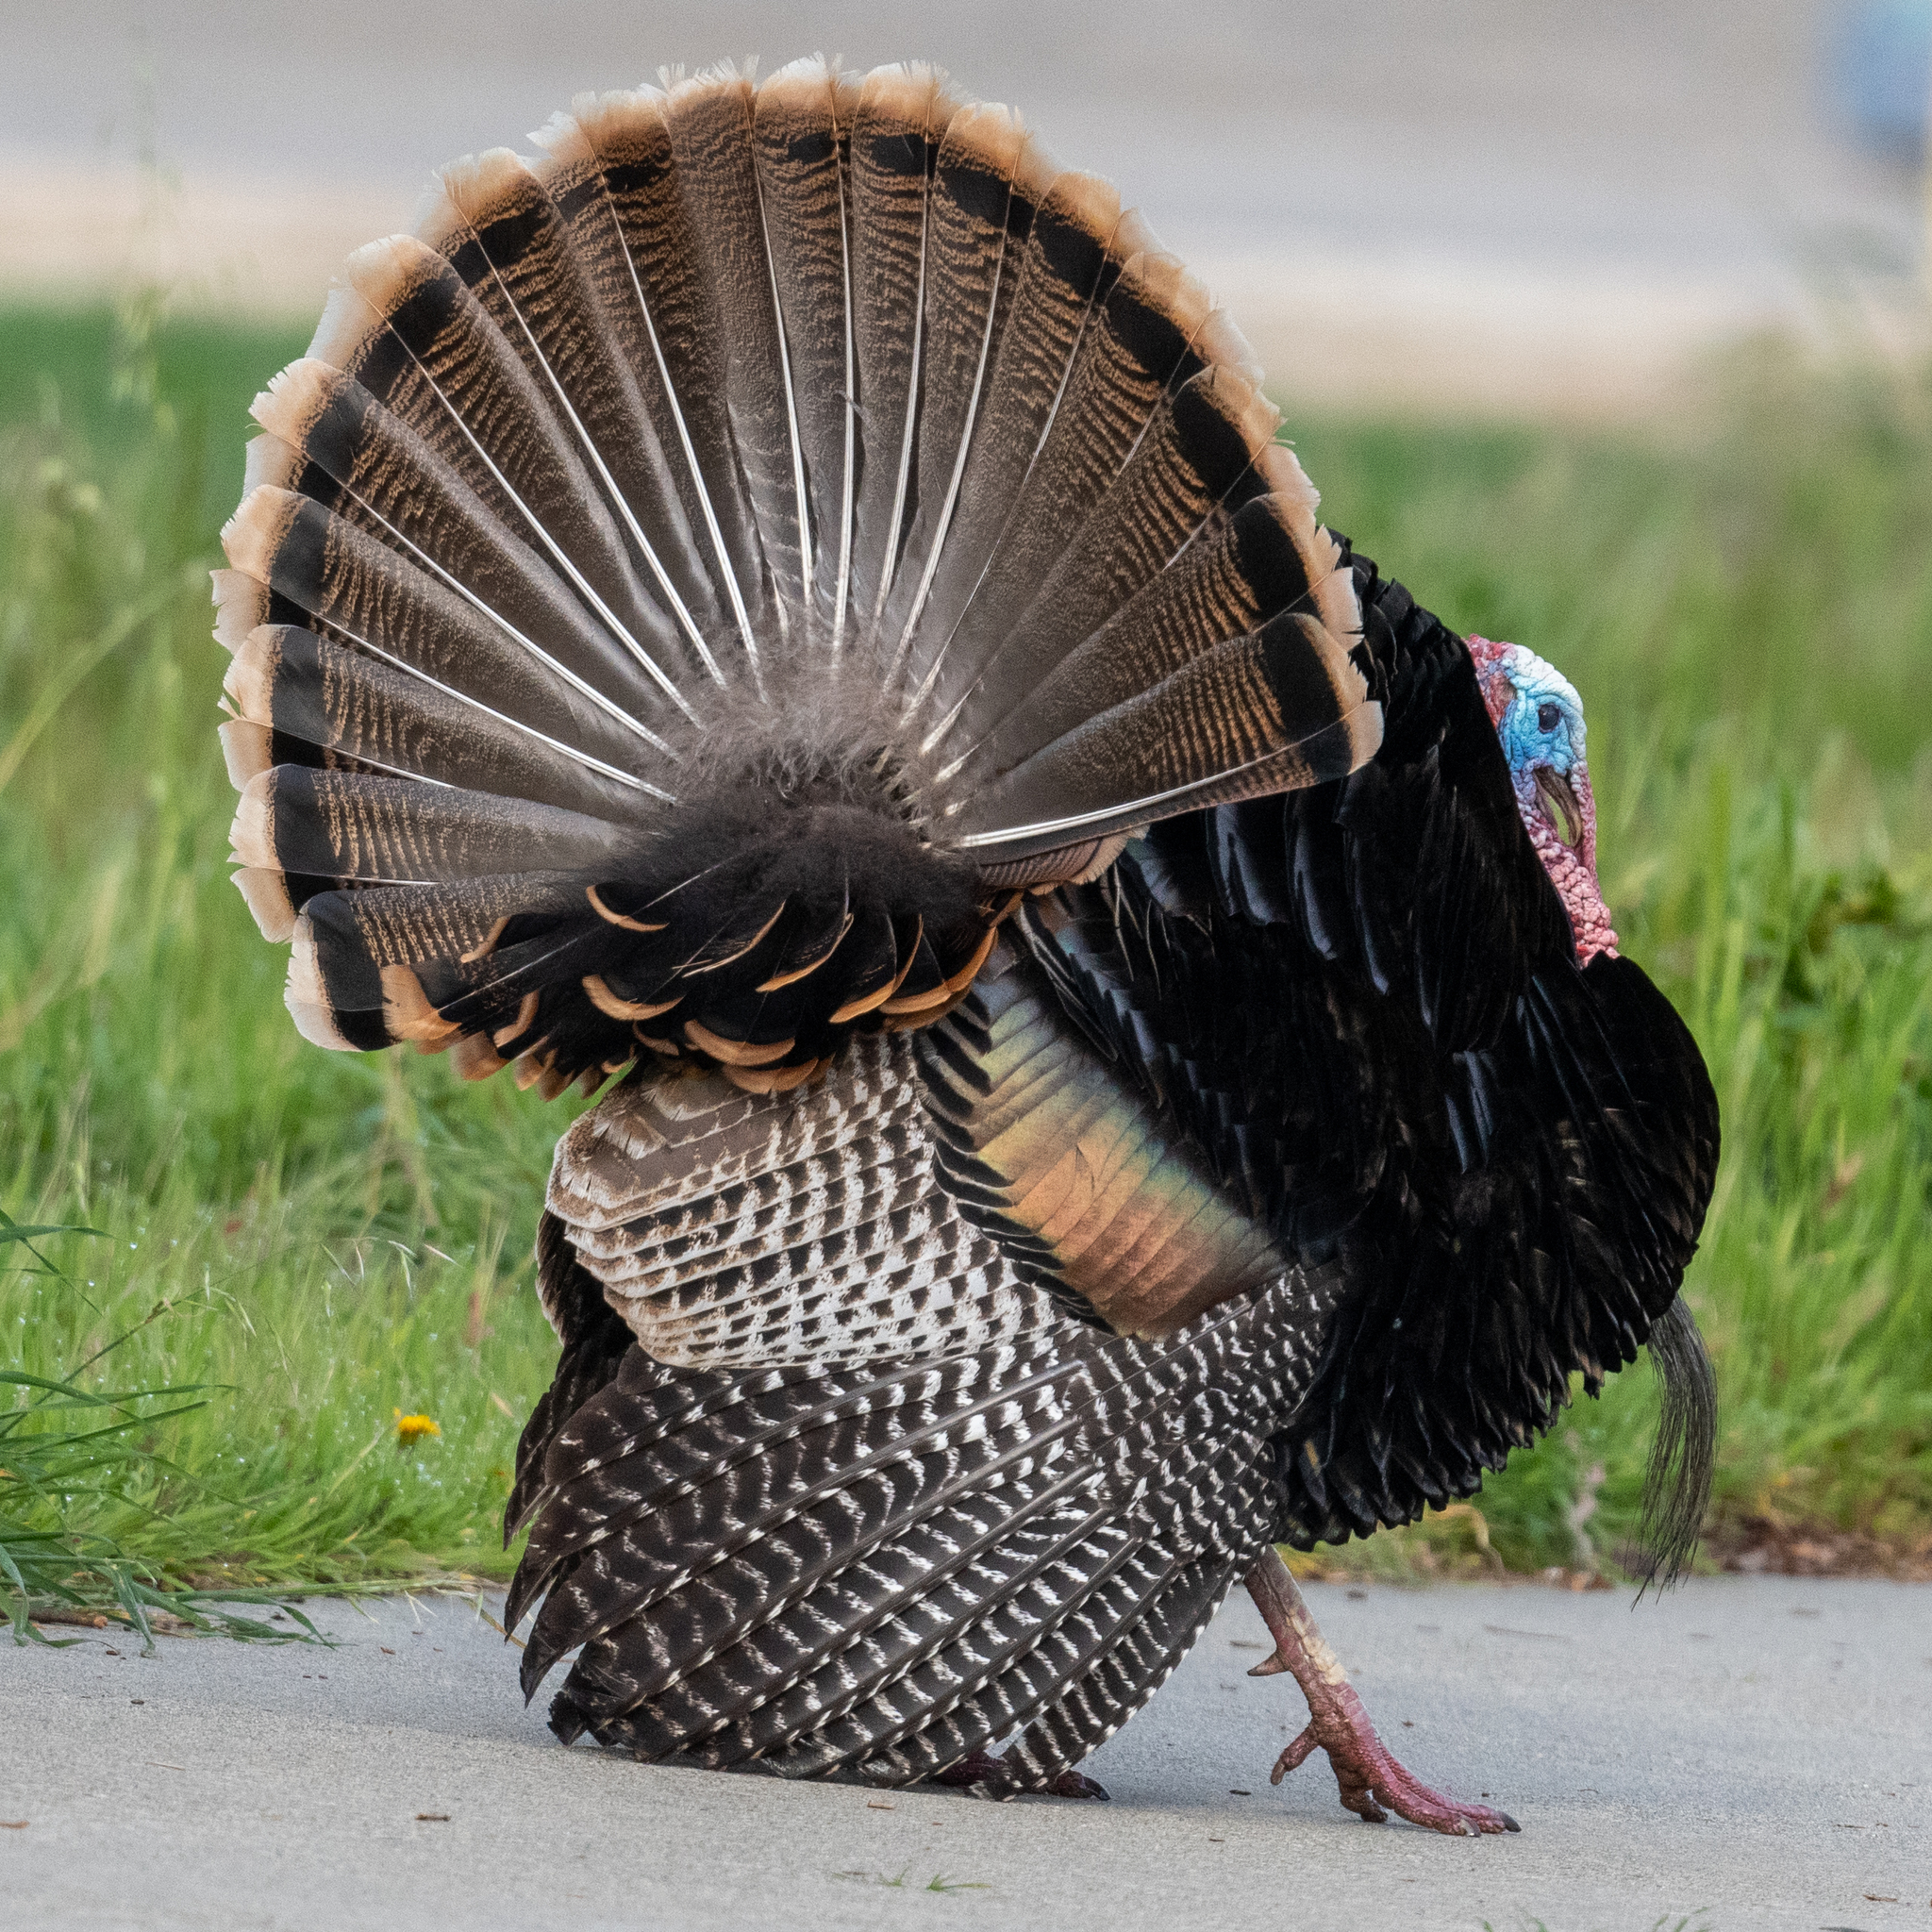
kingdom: Animalia
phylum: Chordata
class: Aves
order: Galliformes
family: Phasianidae
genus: Meleagris
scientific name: Meleagris gallopavo
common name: Wild turkey
